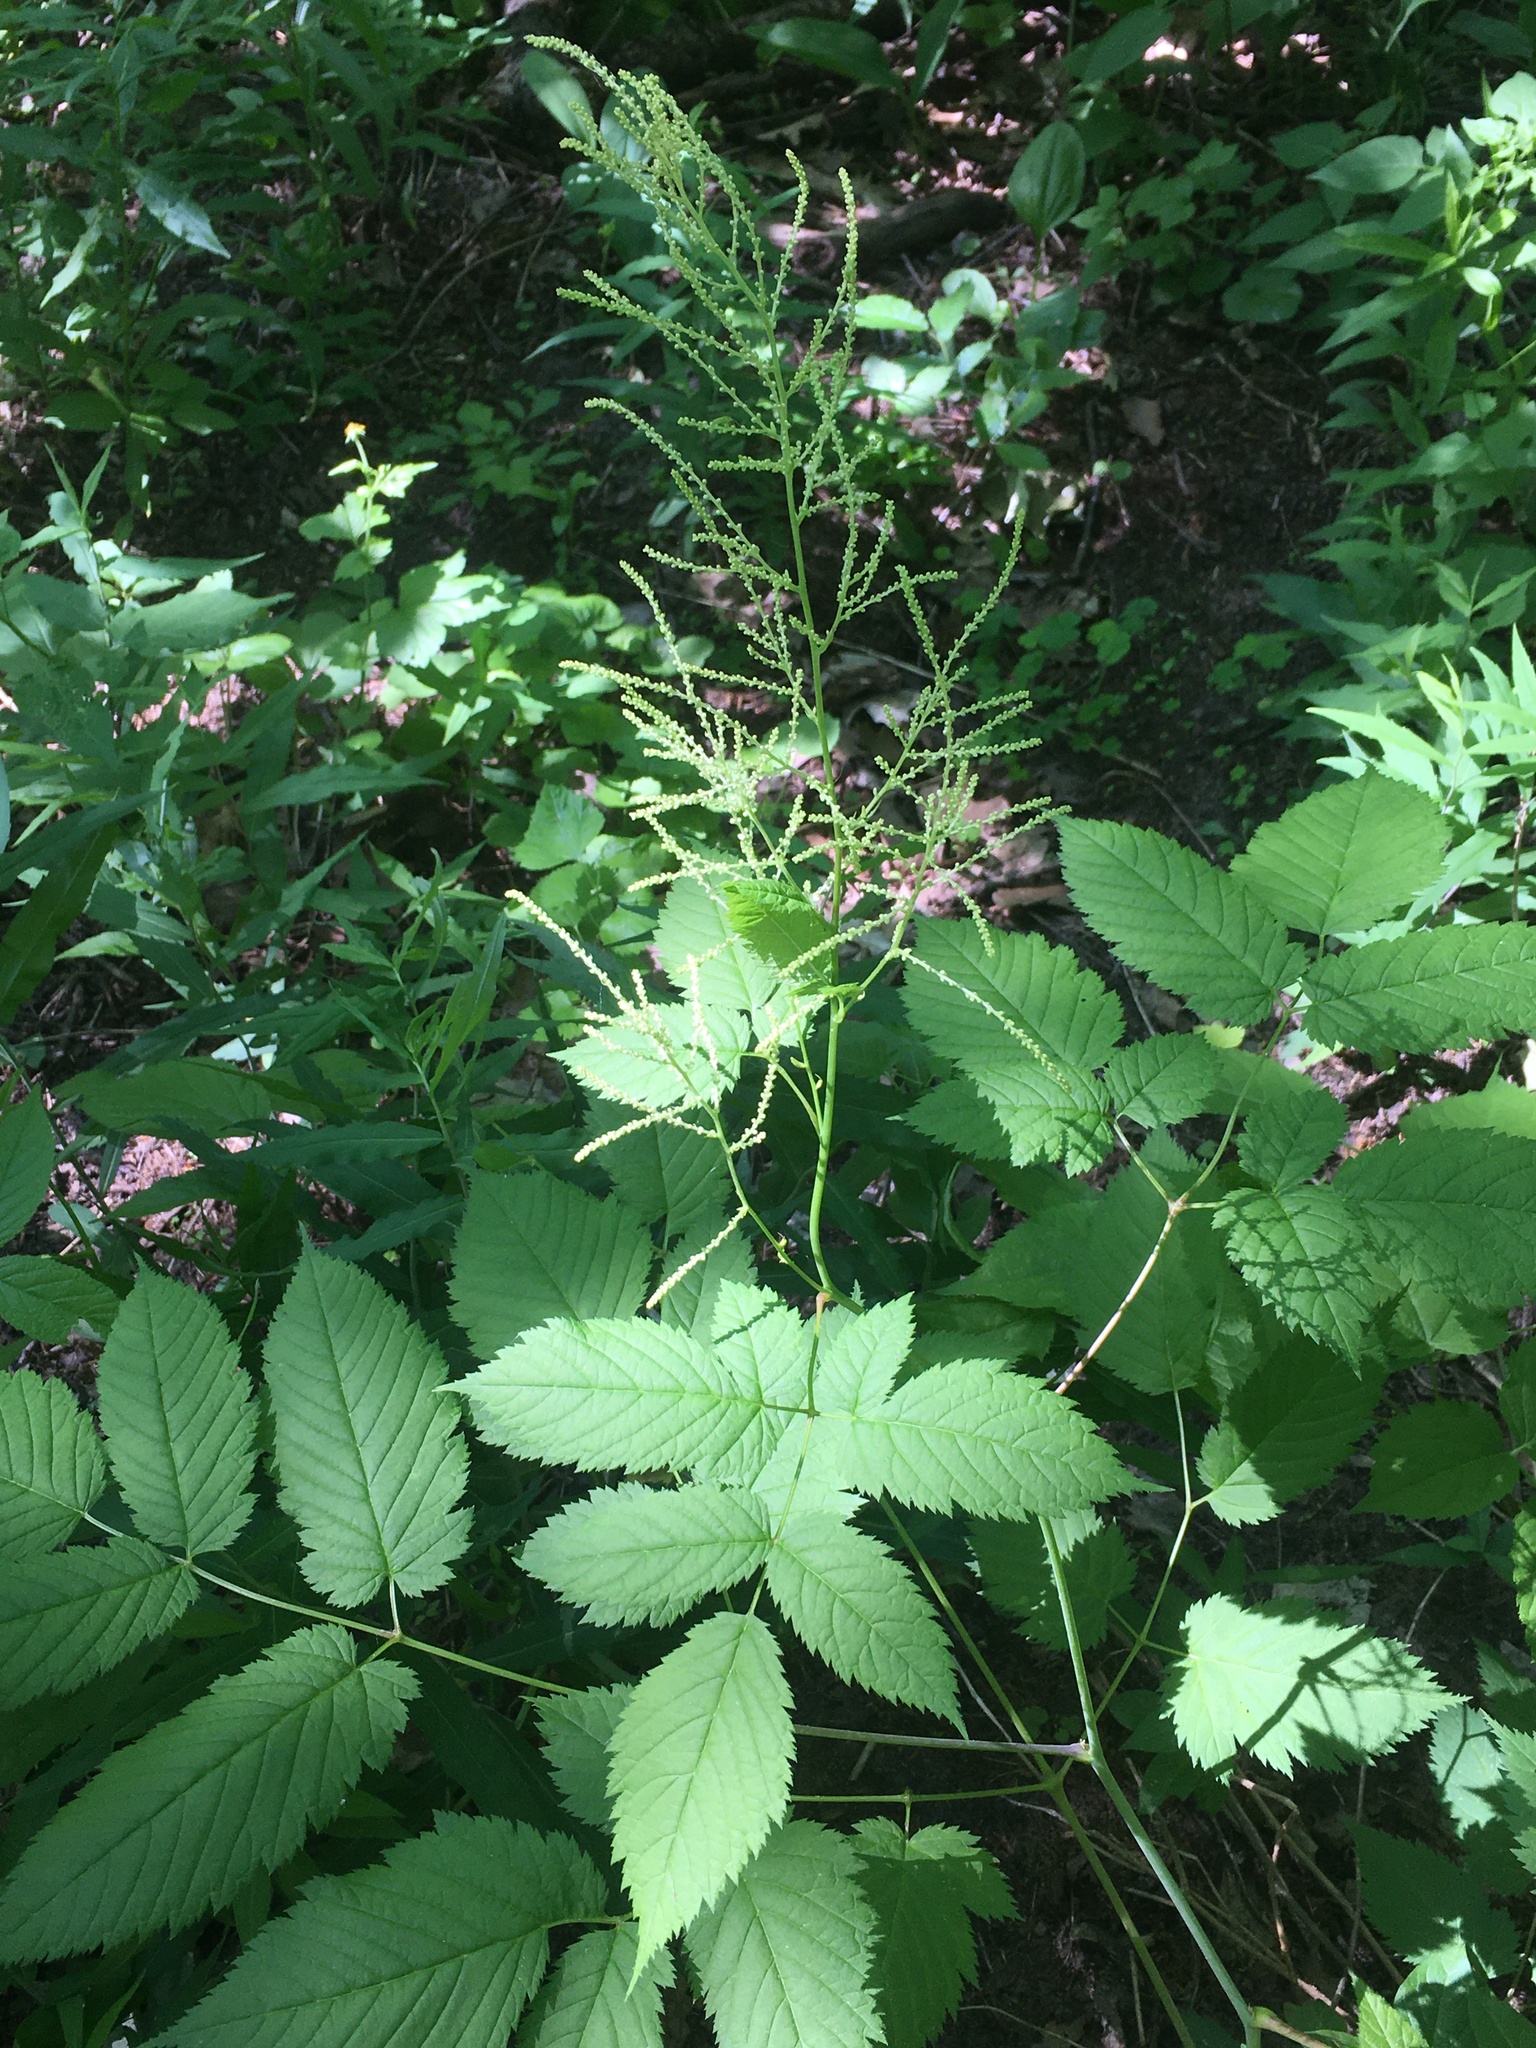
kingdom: Plantae
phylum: Tracheophyta
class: Magnoliopsida
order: Rosales
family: Rosaceae
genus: Aruncus
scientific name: Aruncus dioicus
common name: Buck's-beard
